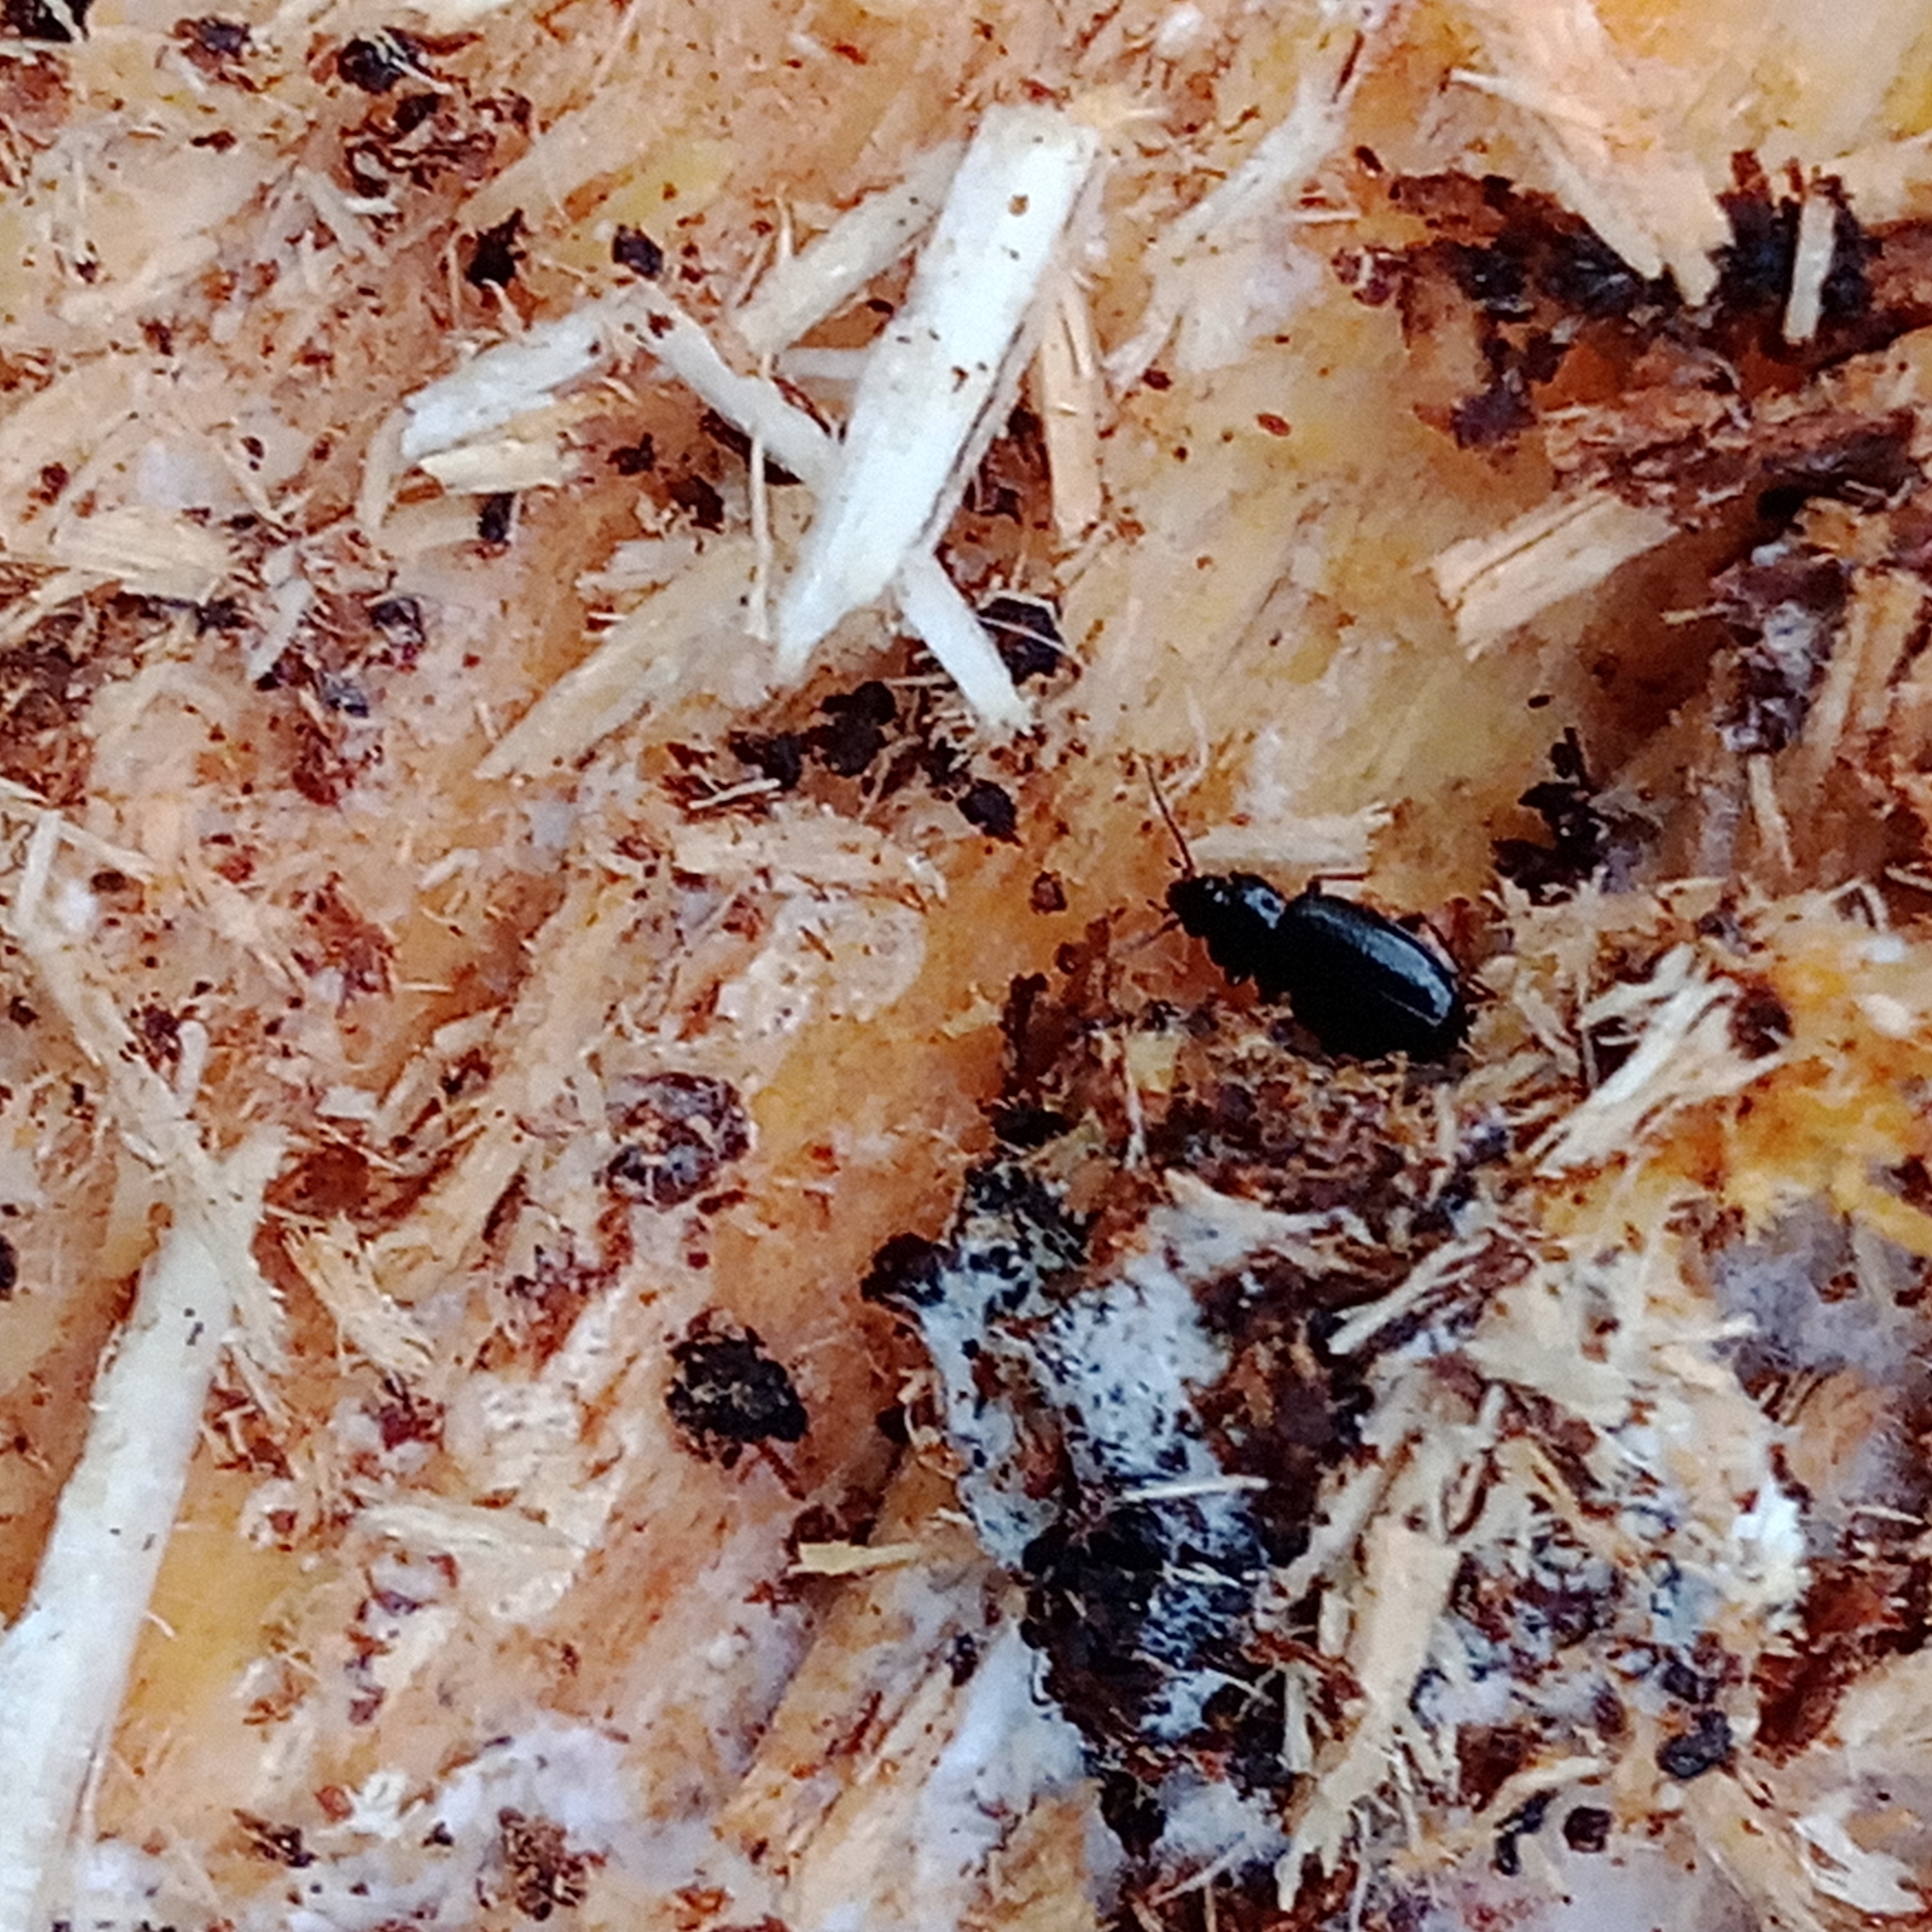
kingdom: Animalia
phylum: Arthropoda
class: Insecta
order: Coleoptera
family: Carabidae
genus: Tachyta
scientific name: Tachyta nana
